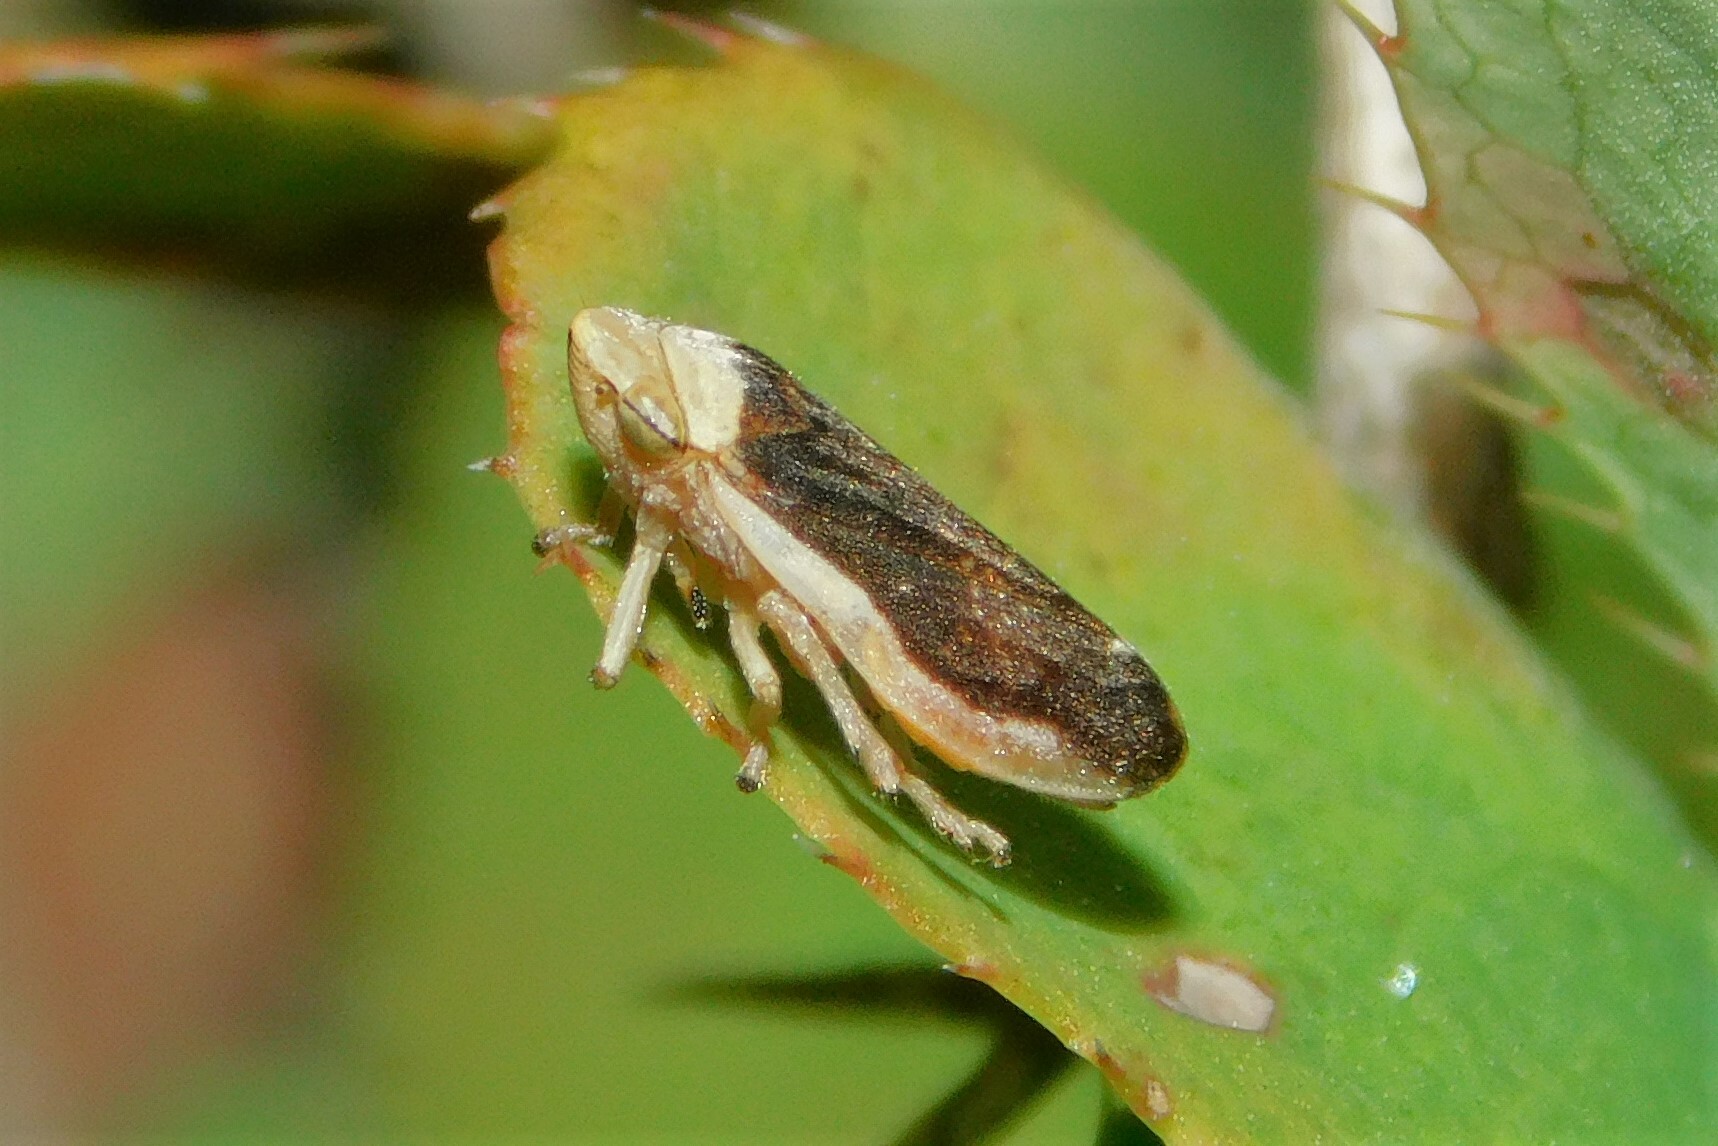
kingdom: Animalia
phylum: Arthropoda
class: Insecta
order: Hemiptera
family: Aphrophoridae
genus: Philaenus
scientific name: Philaenus spumarius
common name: Meadow spittlebug
